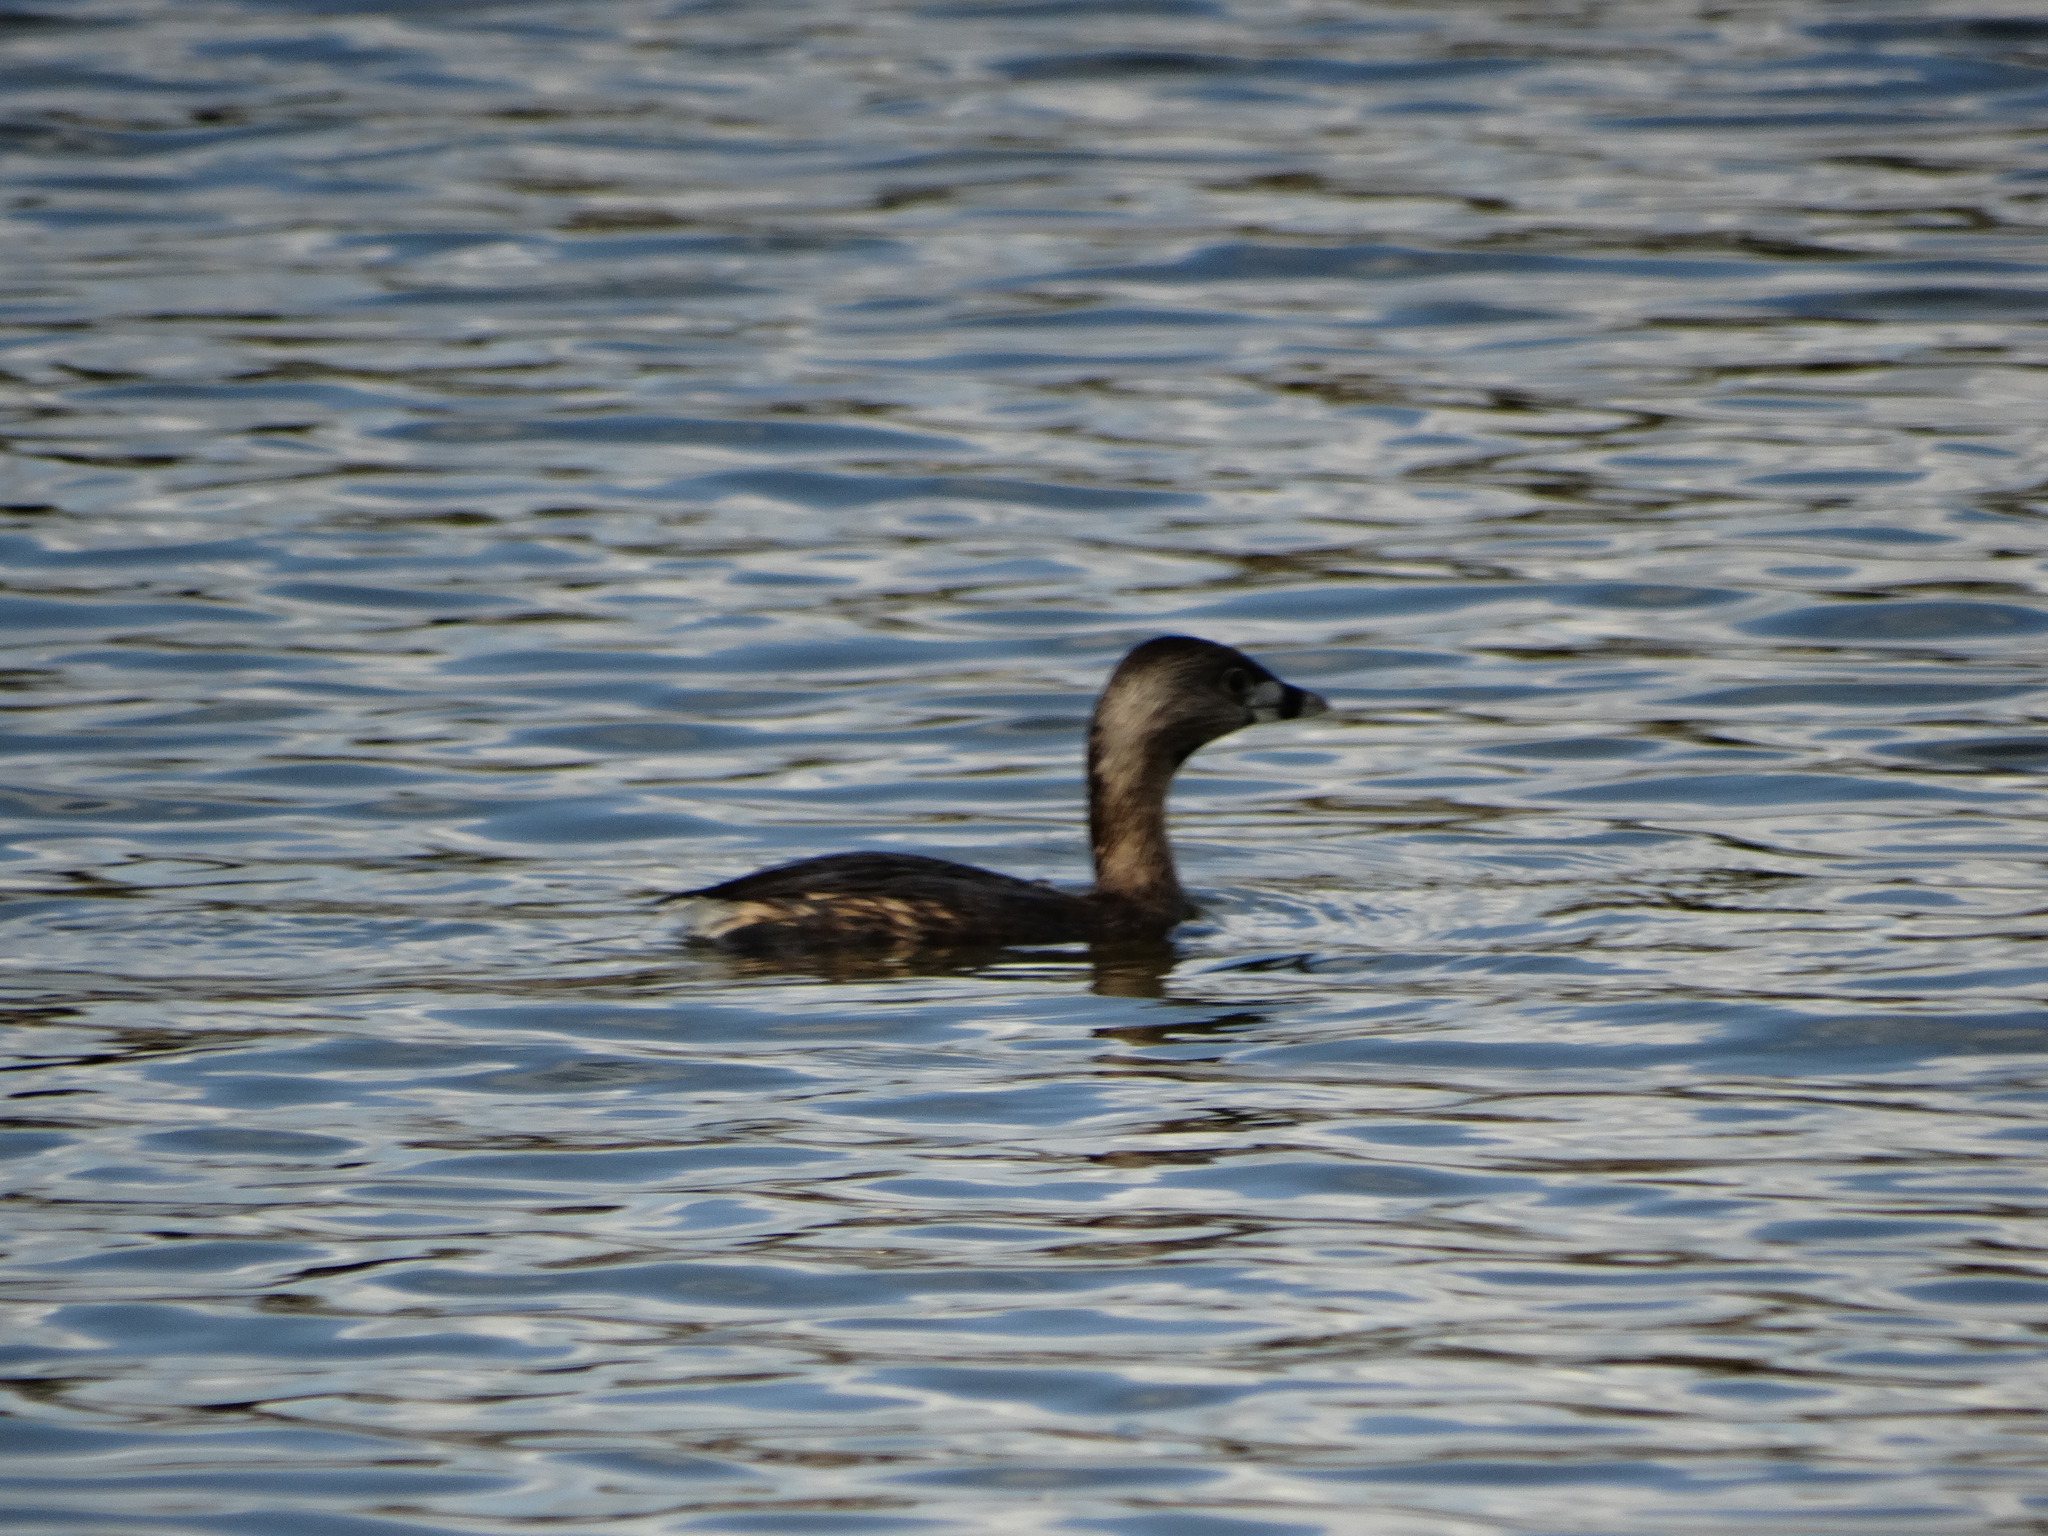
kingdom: Animalia
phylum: Chordata
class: Aves
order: Podicipediformes
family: Podicipedidae
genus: Podilymbus
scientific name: Podilymbus podiceps
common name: Pied-billed grebe
